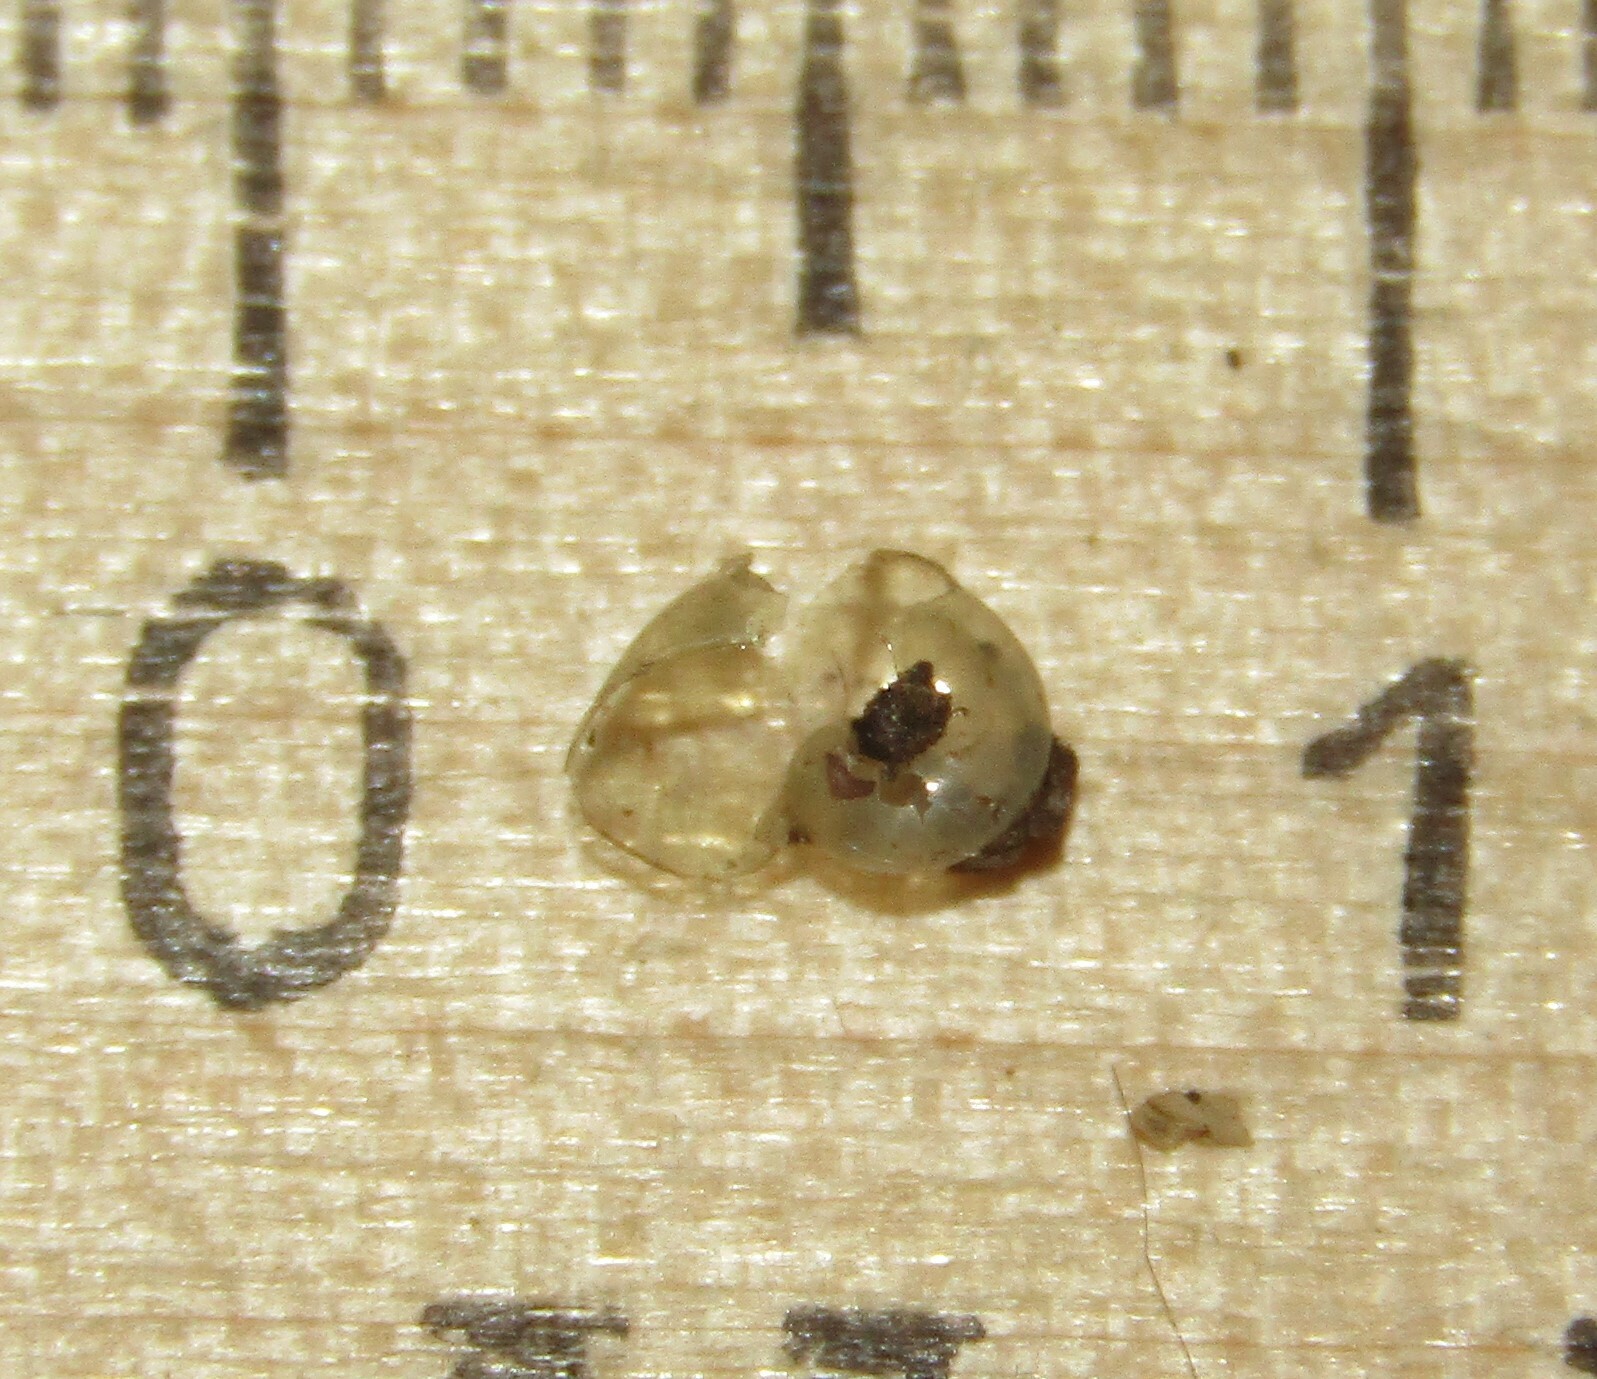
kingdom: Animalia
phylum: Mollusca
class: Gastropoda
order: Stylommatophora
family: Vitrinidae
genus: Vitrina
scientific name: Vitrina pellucida
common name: Pellucid glass snail
